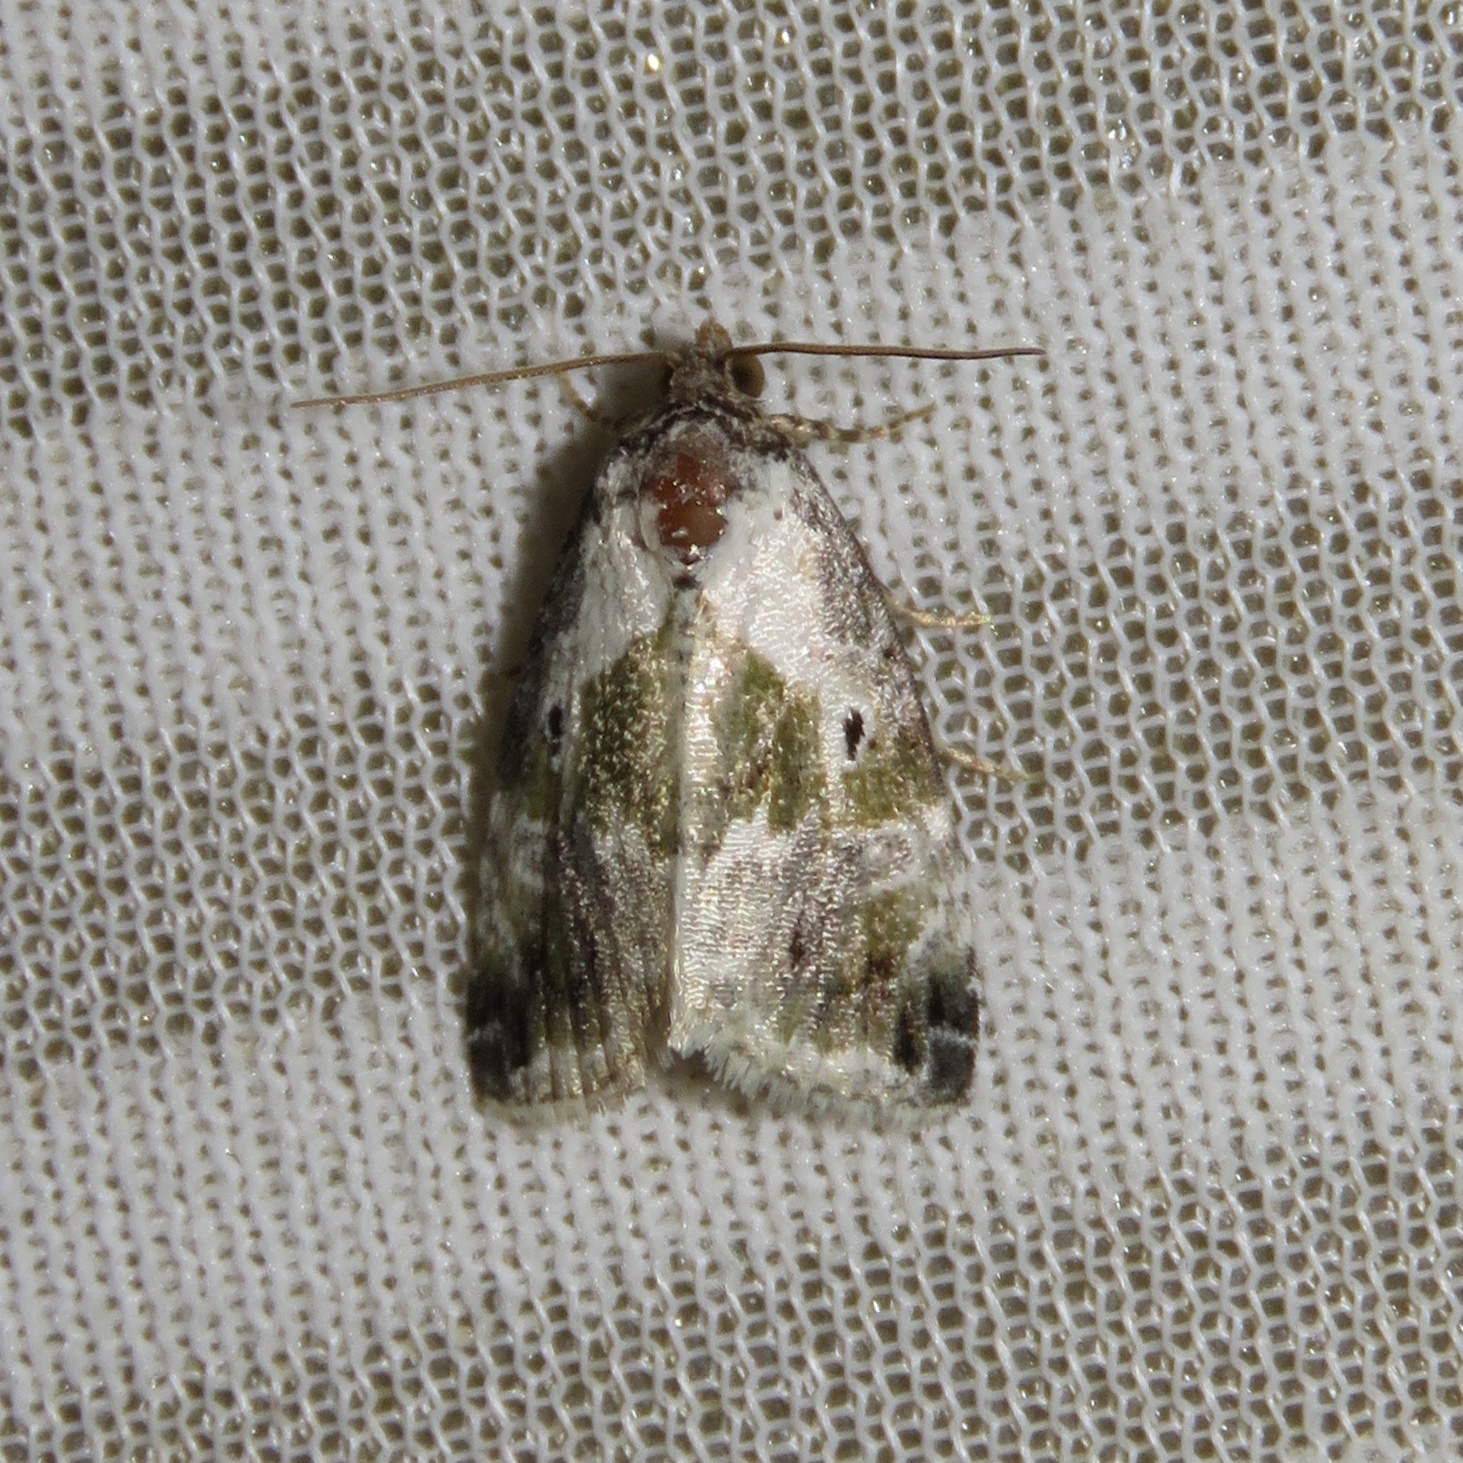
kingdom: Animalia
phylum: Arthropoda
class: Insecta
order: Lepidoptera
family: Noctuidae
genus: Maliattha
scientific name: Maliattha synochitis
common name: Black-dotted glyph
